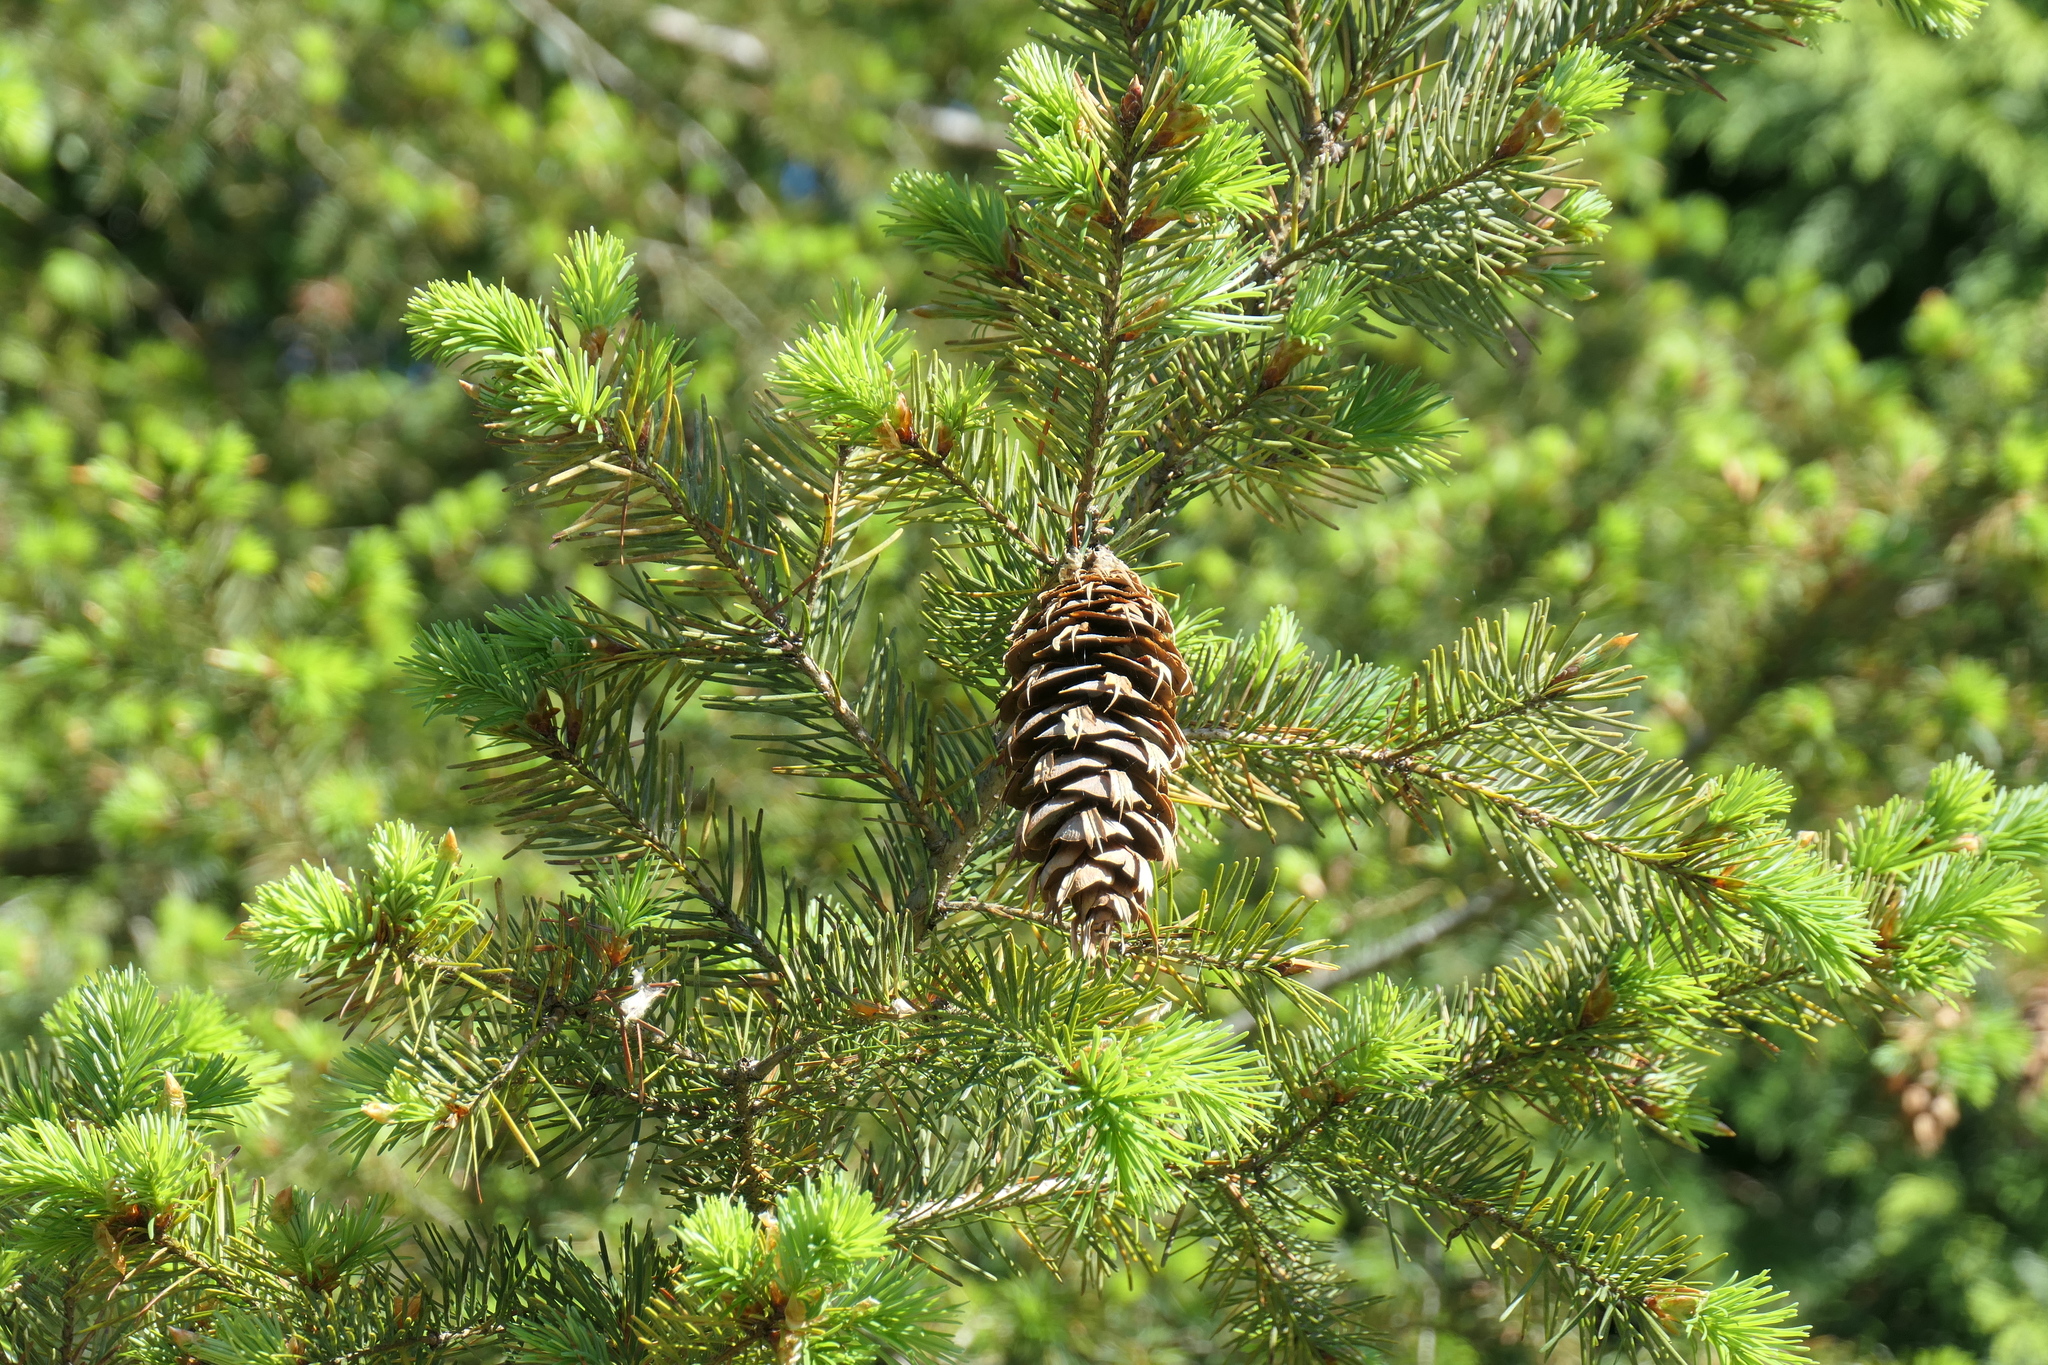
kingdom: Plantae
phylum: Tracheophyta
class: Pinopsida
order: Pinales
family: Pinaceae
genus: Pseudotsuga
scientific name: Pseudotsuga menziesii
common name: Douglas fir
